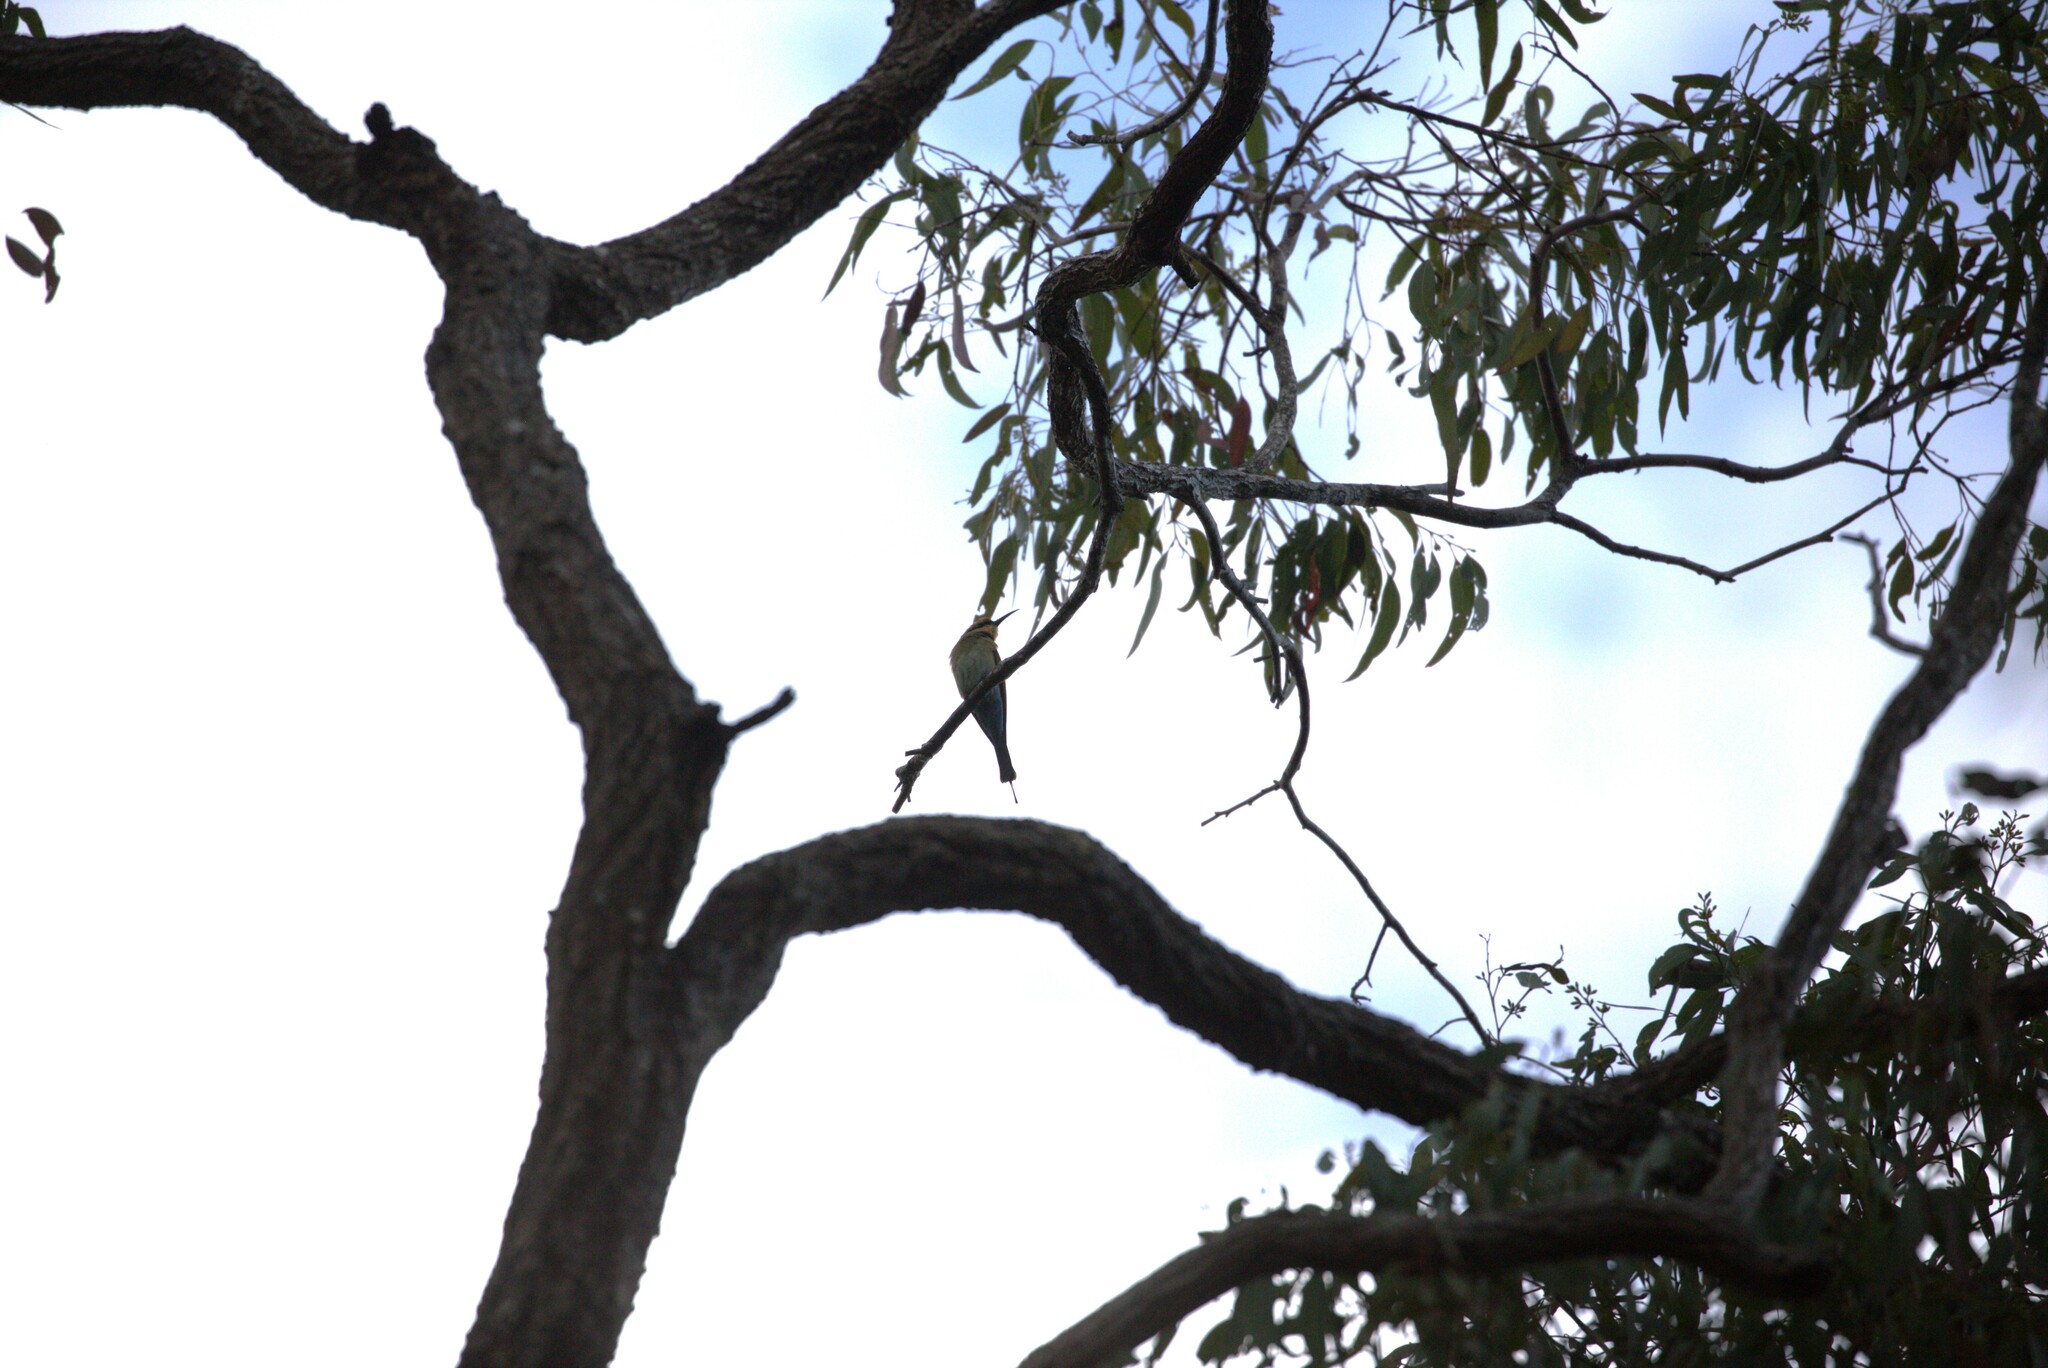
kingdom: Animalia
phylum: Chordata
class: Aves
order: Coraciiformes
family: Meropidae
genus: Merops
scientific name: Merops ornatus
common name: Rainbow bee-eater
